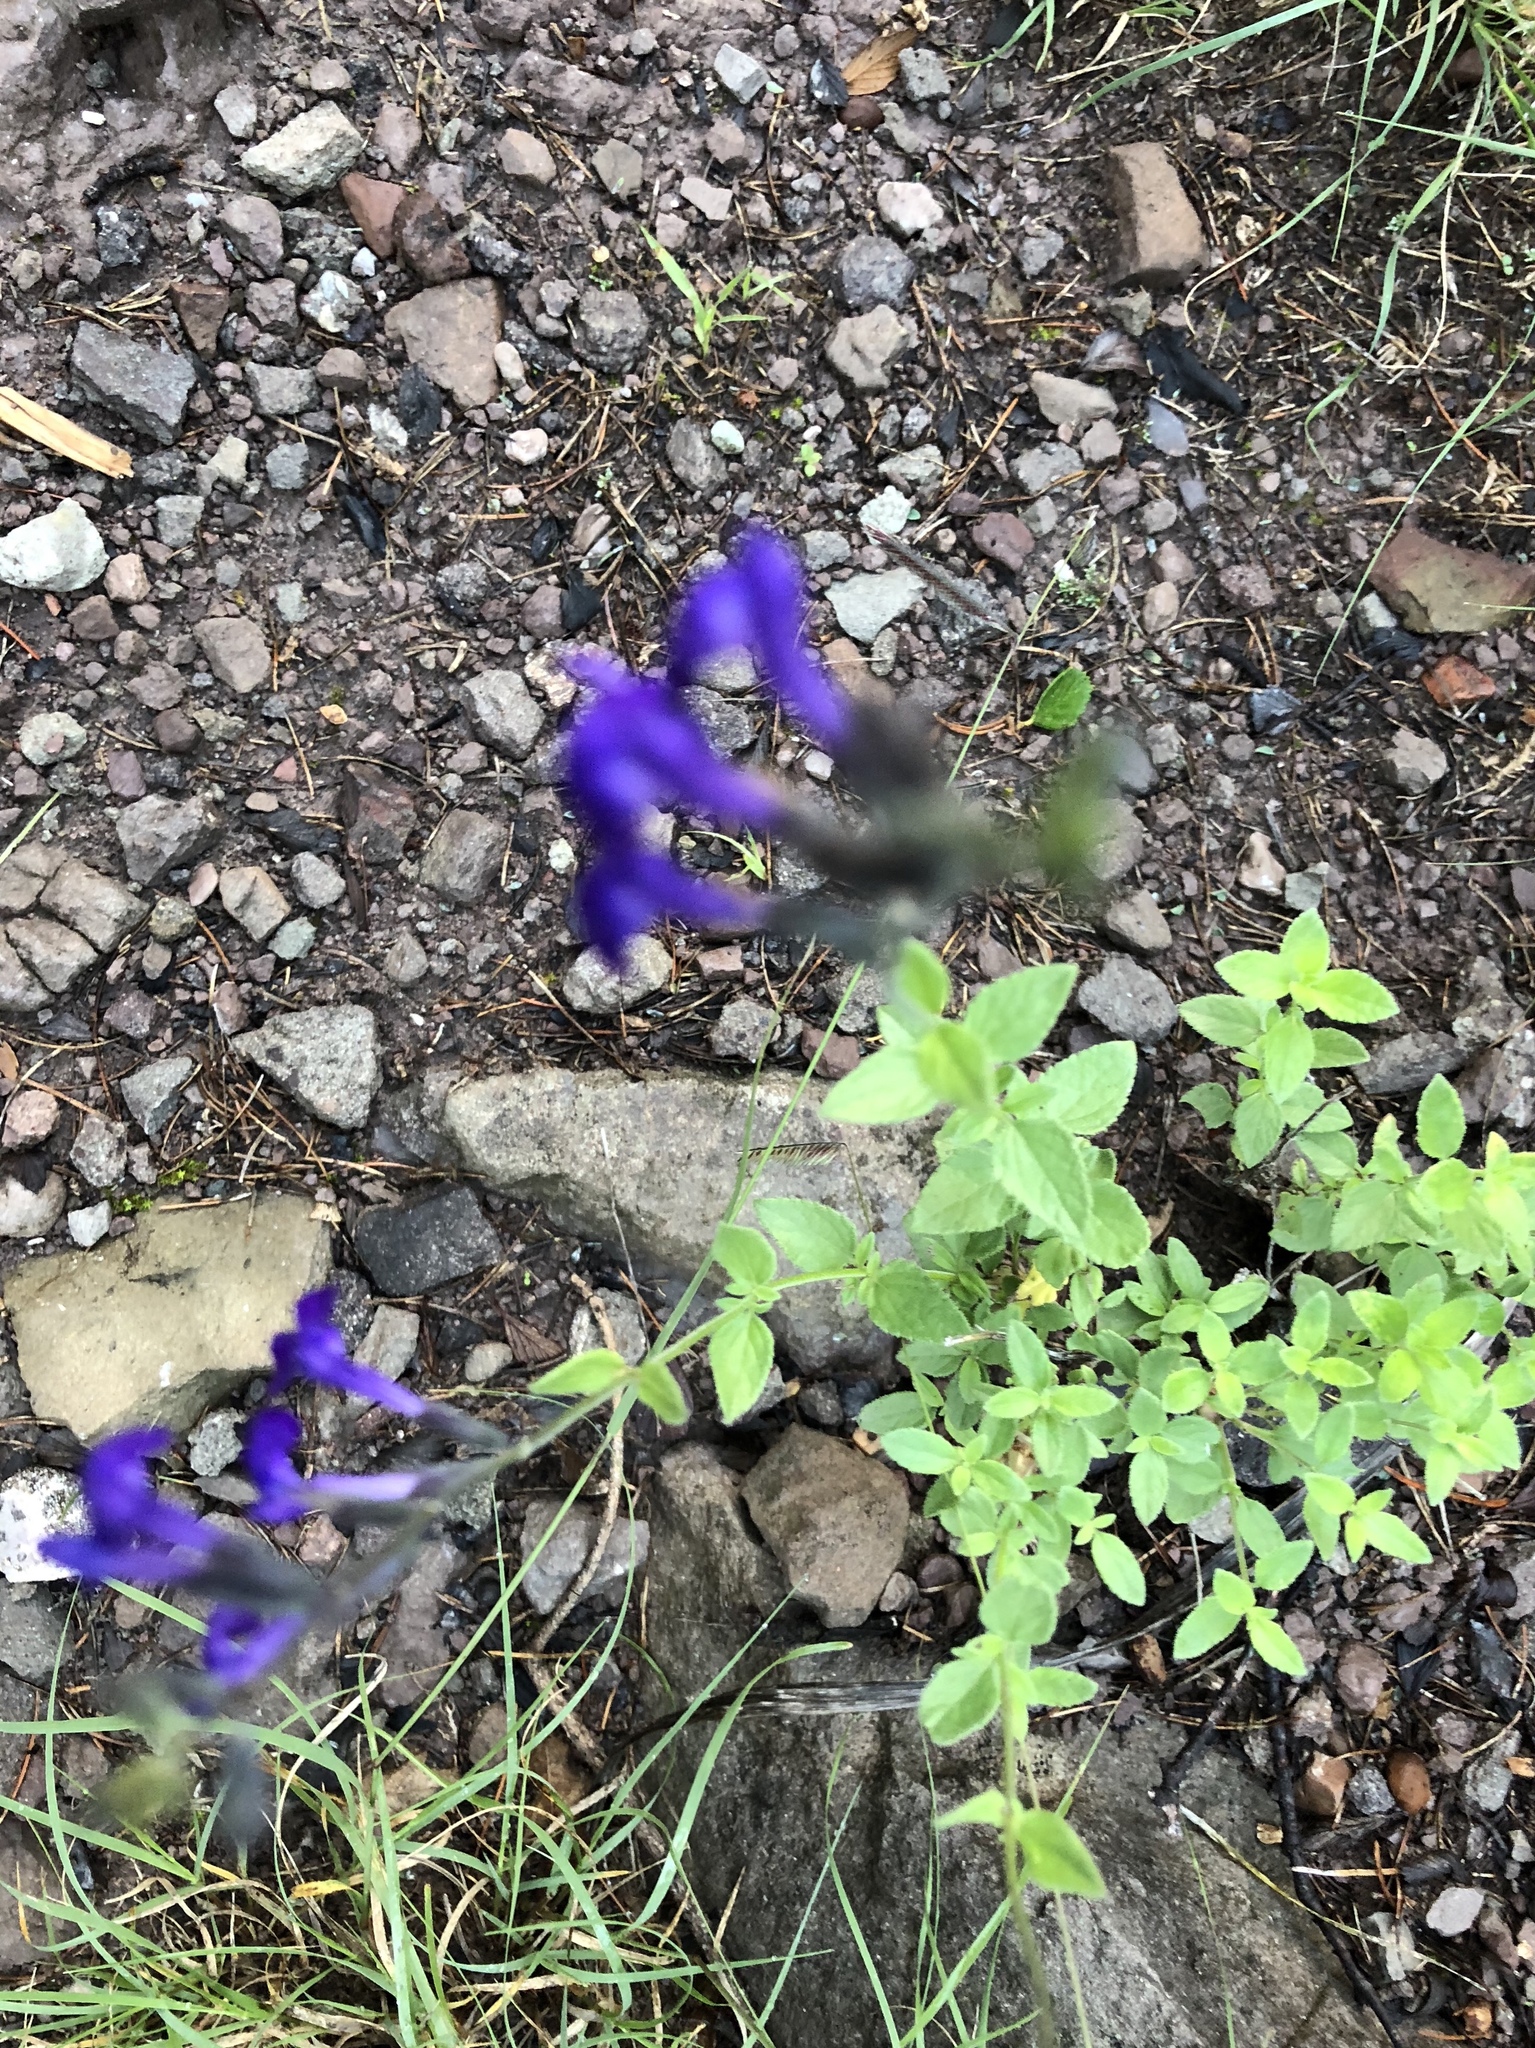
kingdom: Plantae
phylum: Tracheophyta
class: Magnoliopsida
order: Lamiales
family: Lamiaceae
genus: Salvia
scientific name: Salvia lycioides
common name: Canyon sage
